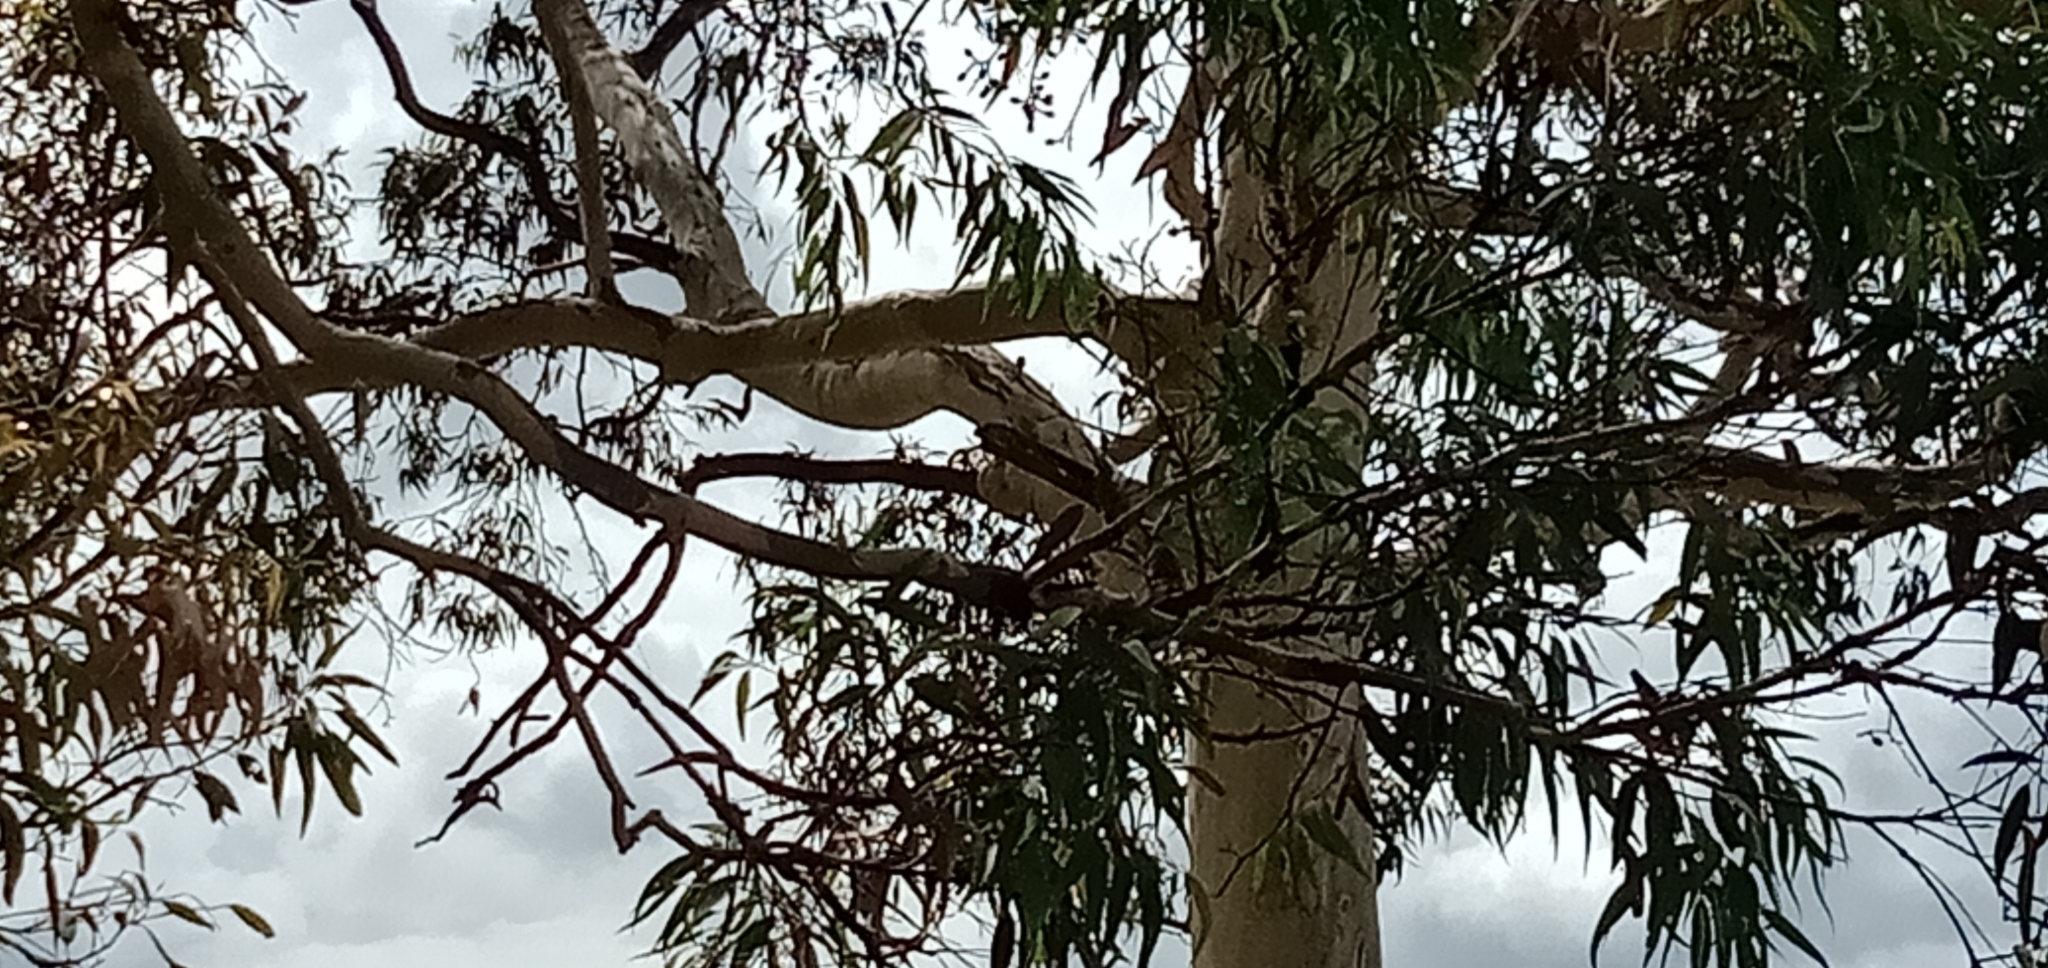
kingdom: Animalia
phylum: Chordata
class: Aves
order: Passeriformes
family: Meliphagidae
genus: Anthochaera
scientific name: Anthochaera carunculata
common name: Red wattlebird
